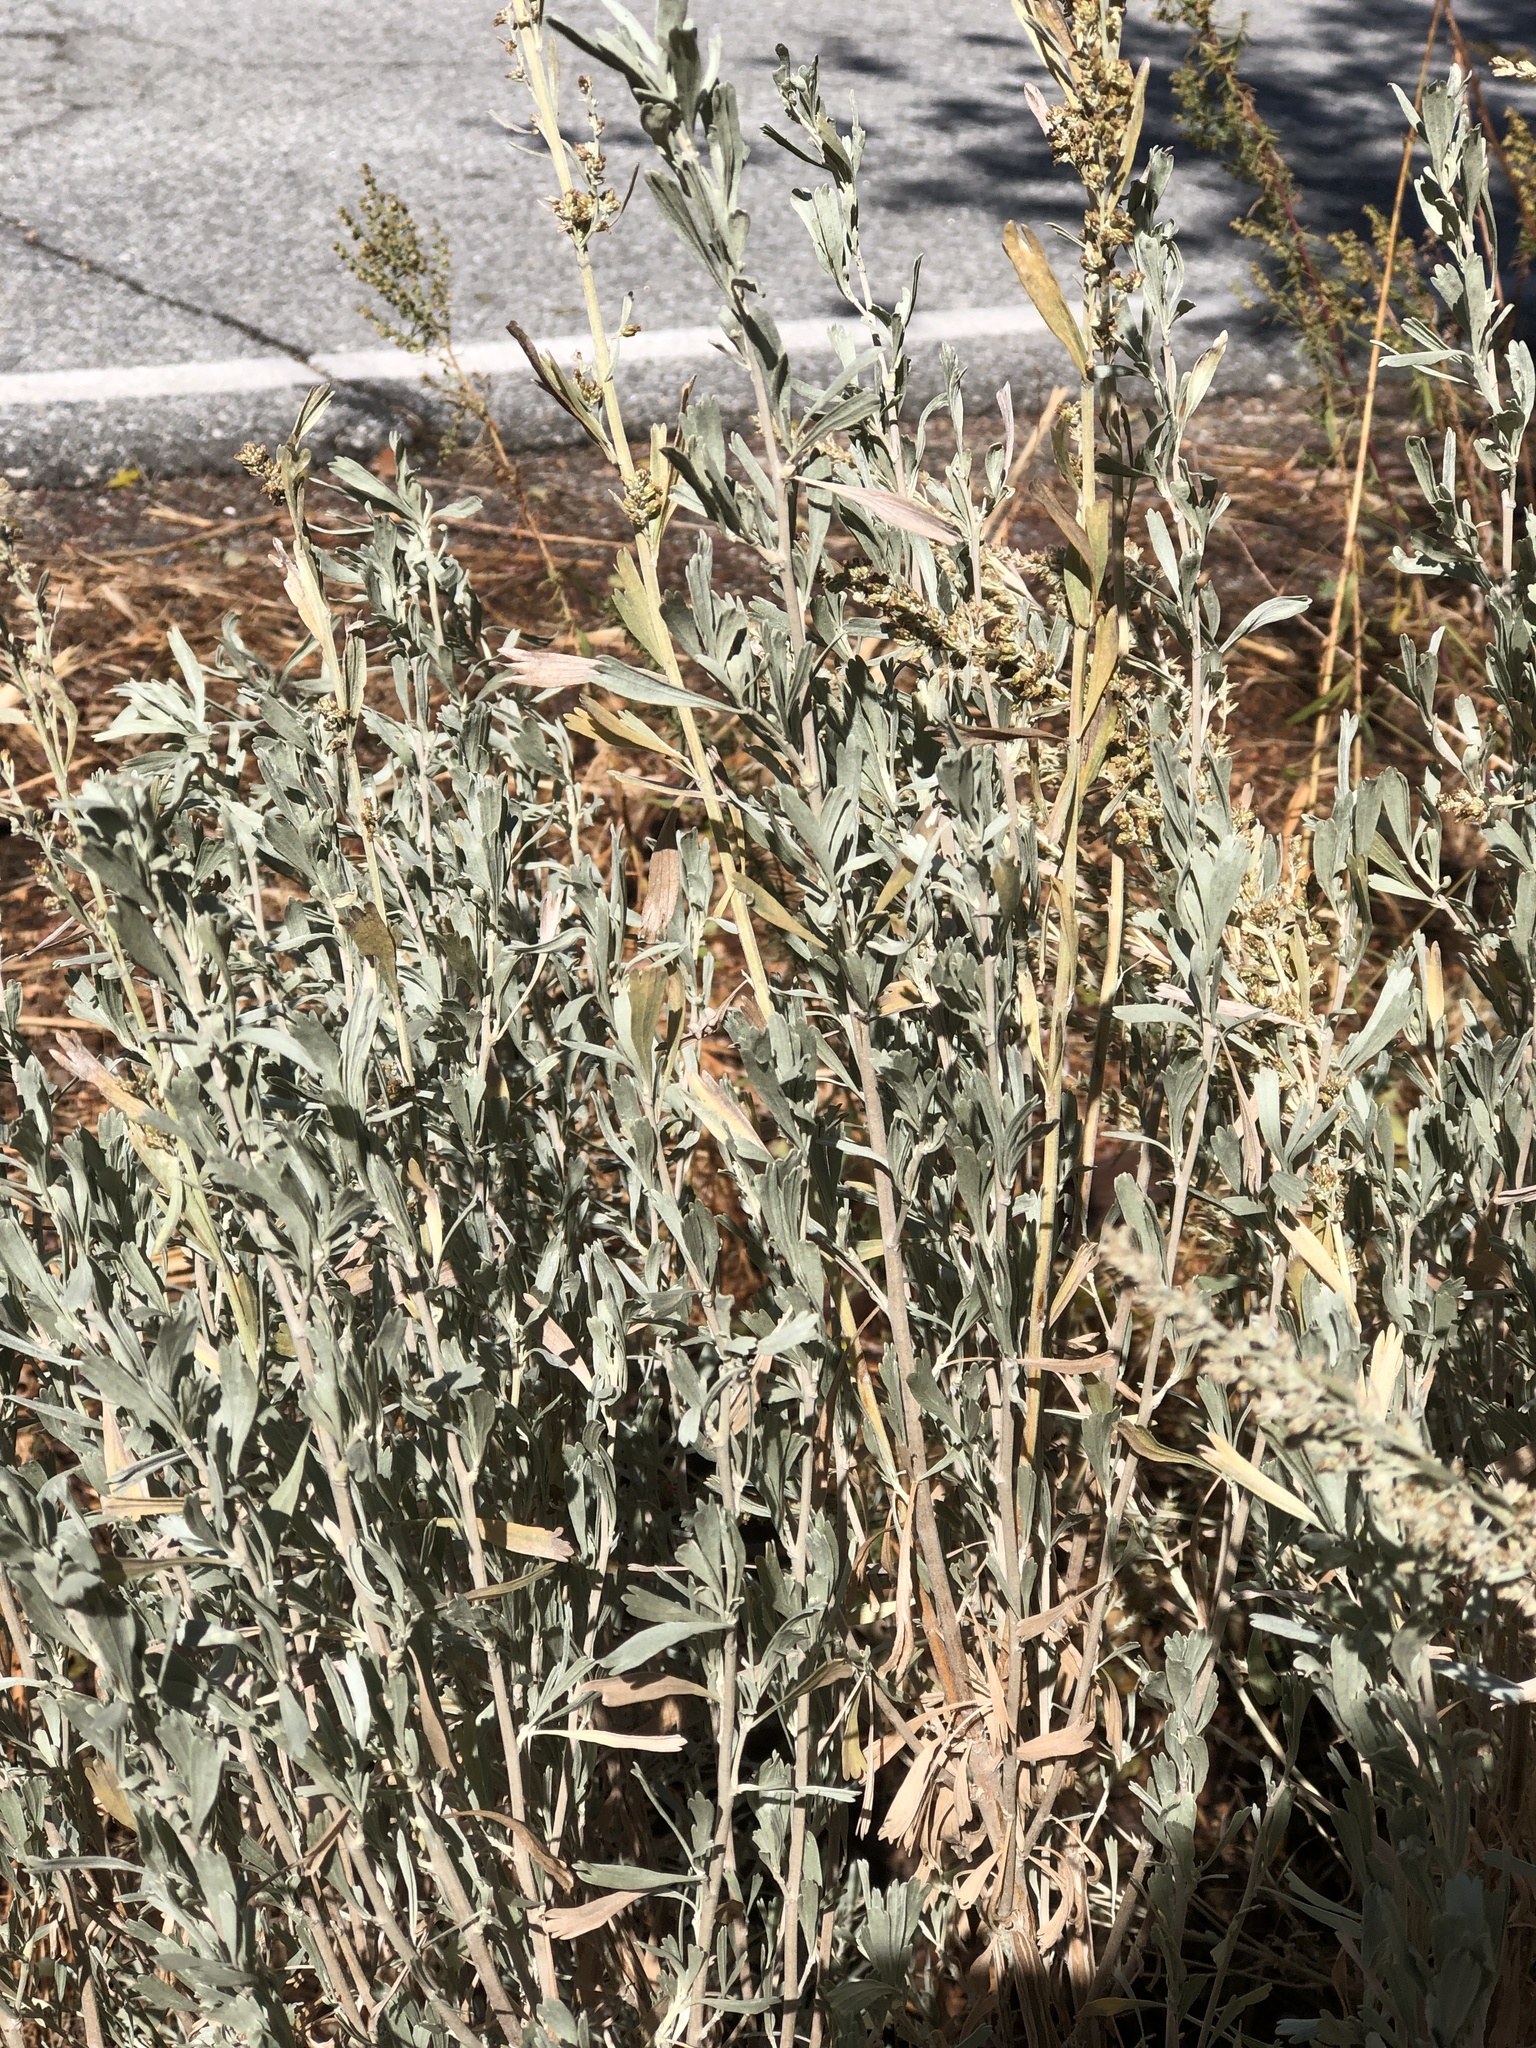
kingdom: Plantae
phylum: Tracheophyta
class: Magnoliopsida
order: Asterales
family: Asteraceae
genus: Artemisia
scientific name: Artemisia tridentata
